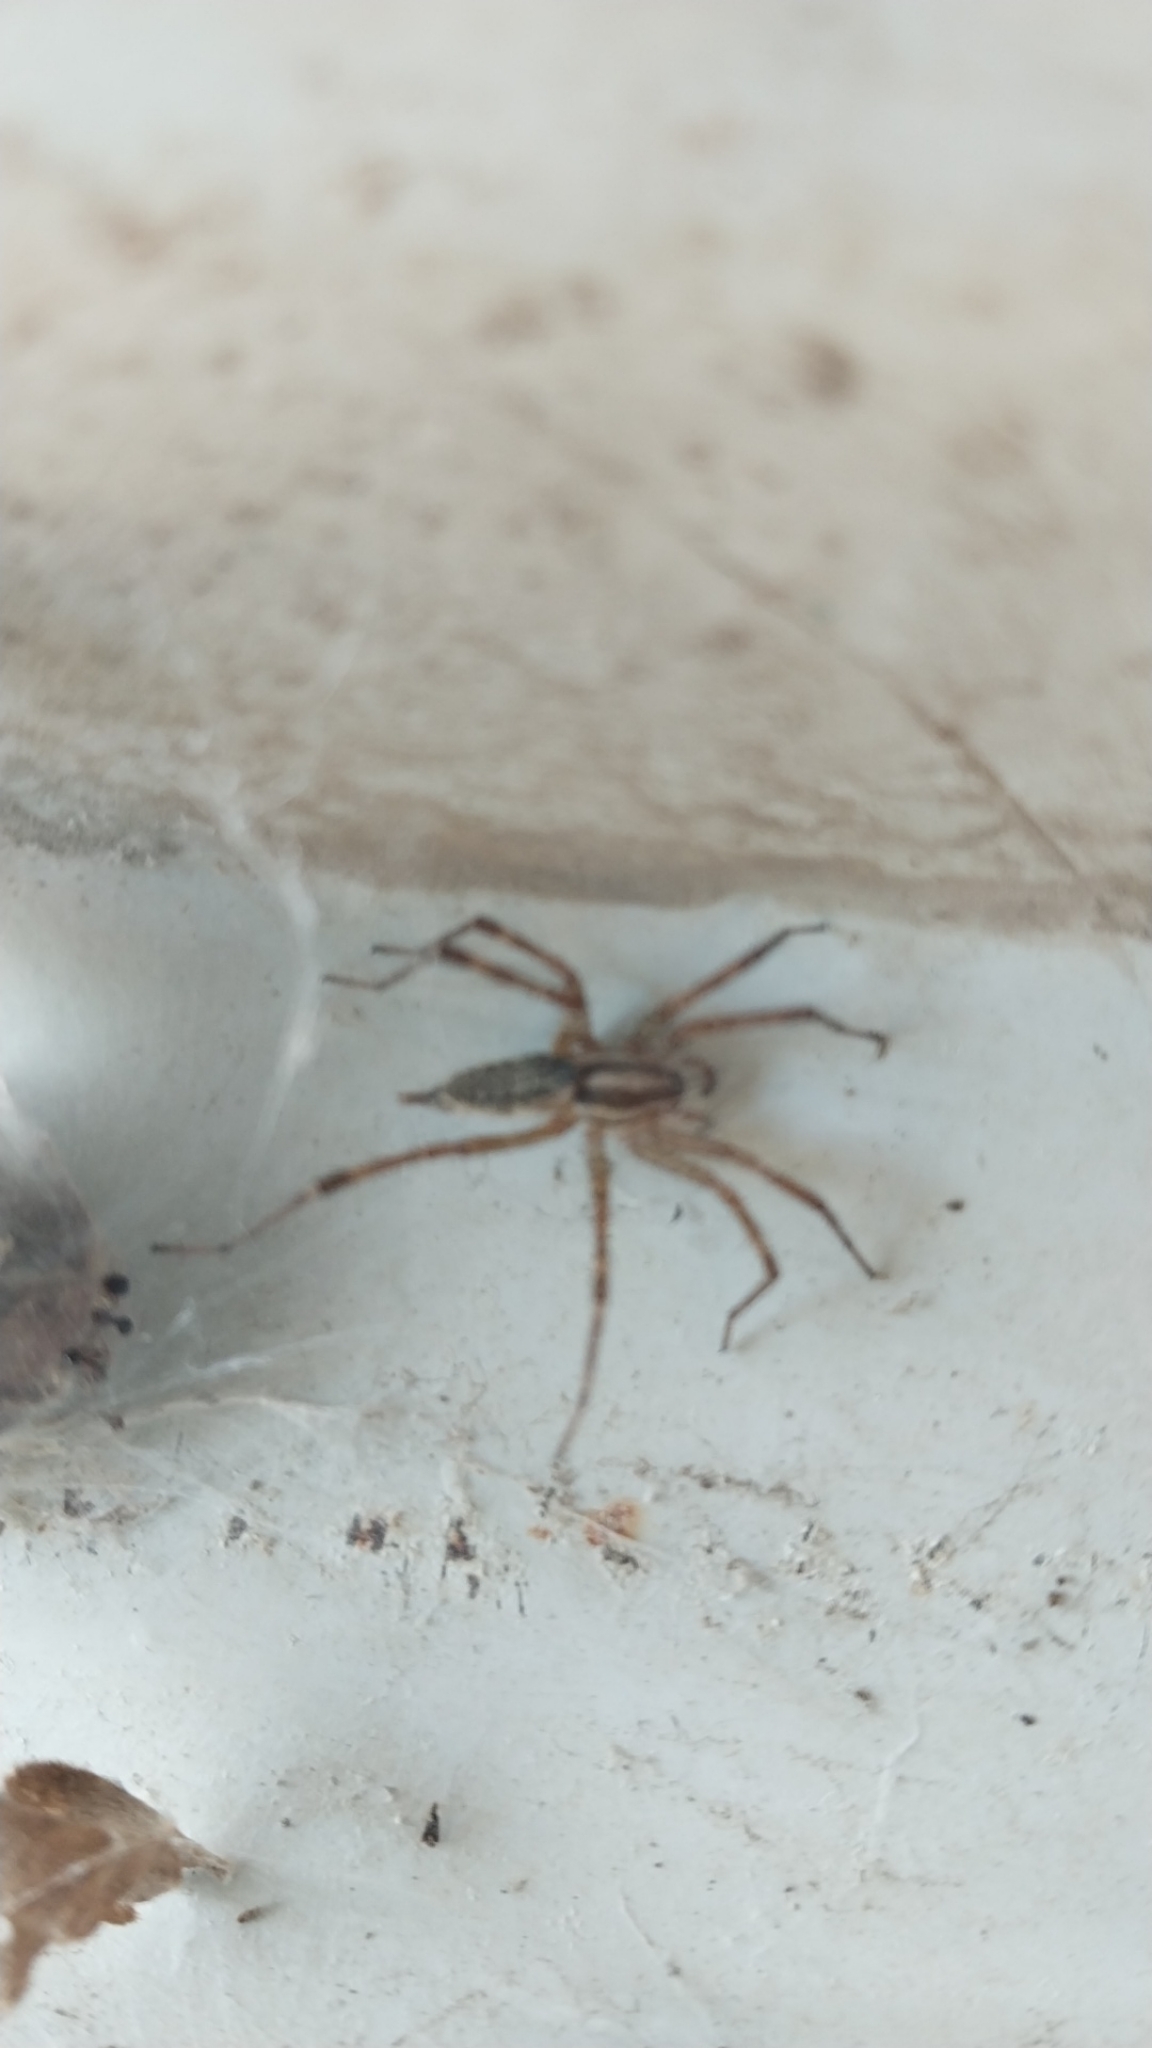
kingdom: Animalia
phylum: Arthropoda
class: Arachnida
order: Araneae
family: Agelenidae
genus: Agelenopsis
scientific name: Agelenopsis
